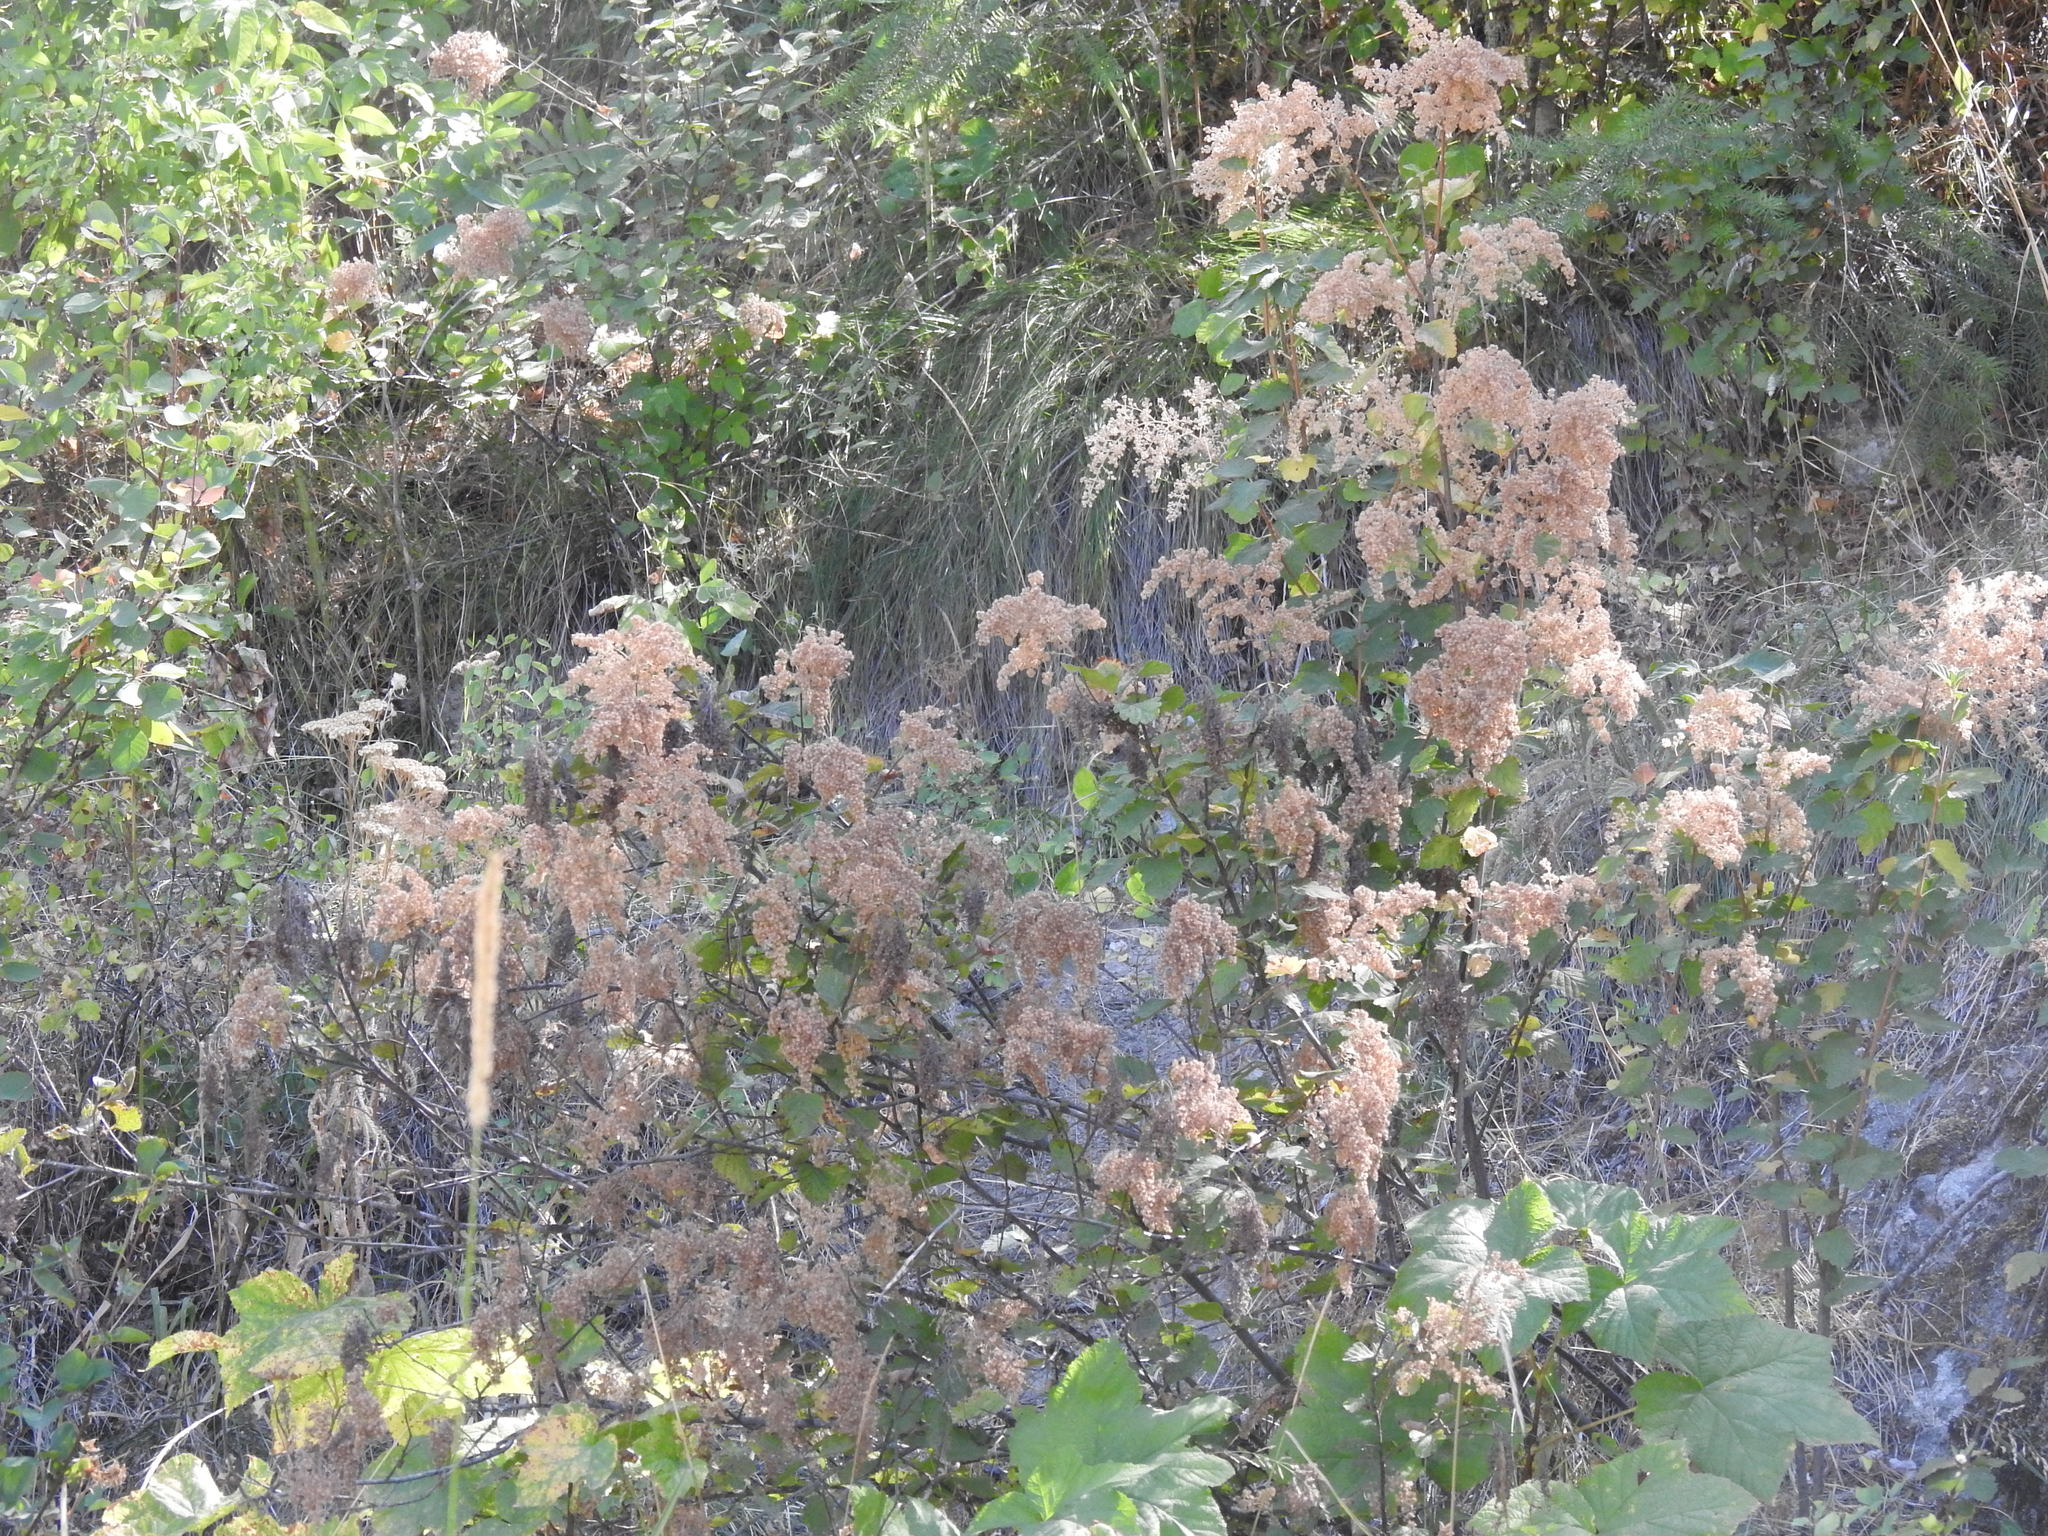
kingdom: Plantae
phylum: Tracheophyta
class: Magnoliopsida
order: Rosales
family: Rosaceae
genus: Holodiscus
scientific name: Holodiscus discolor
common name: Oceanspray
